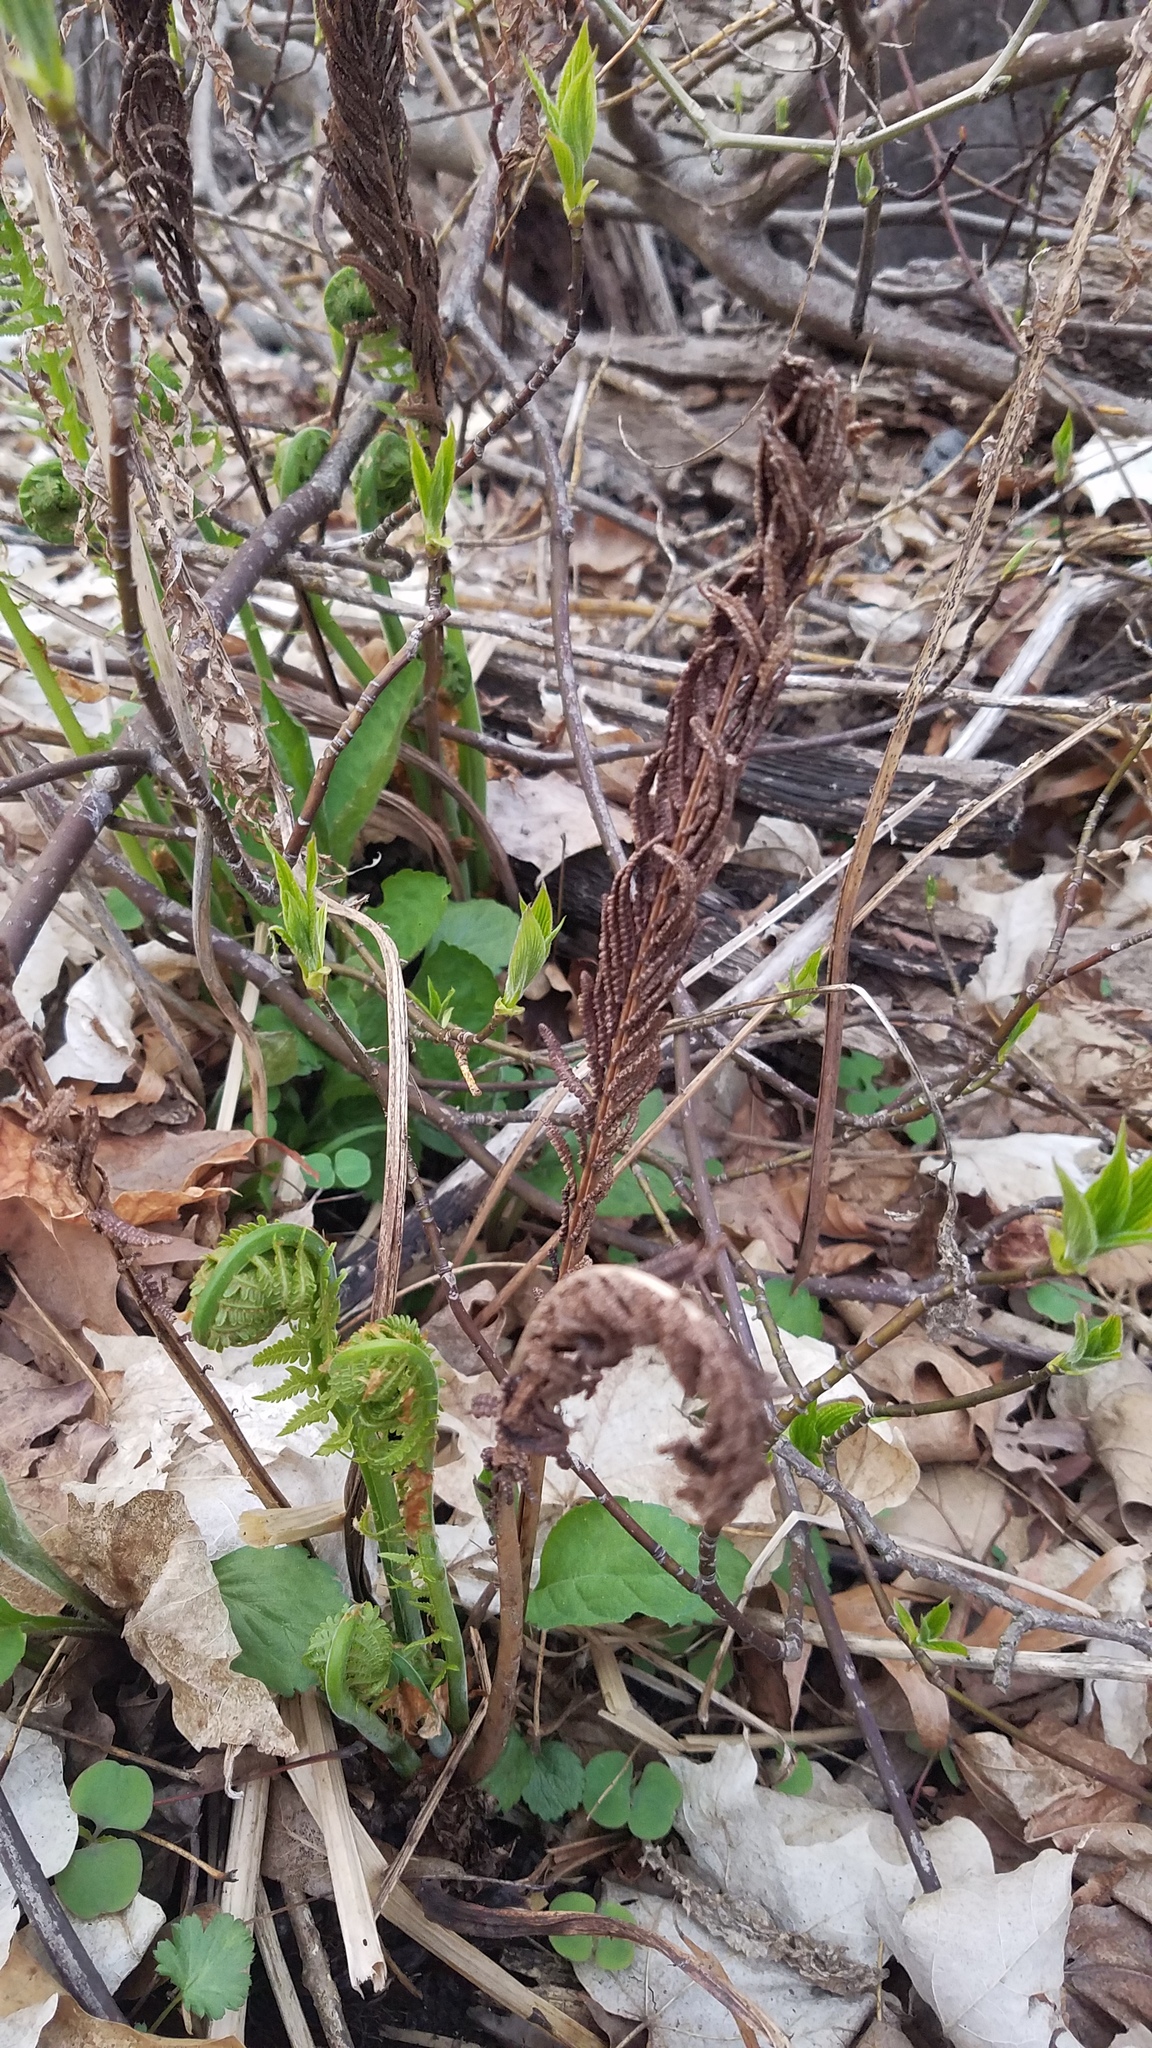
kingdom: Plantae
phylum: Tracheophyta
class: Polypodiopsida
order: Polypodiales
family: Onocleaceae
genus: Matteuccia
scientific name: Matteuccia struthiopteris
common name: Ostrich fern
